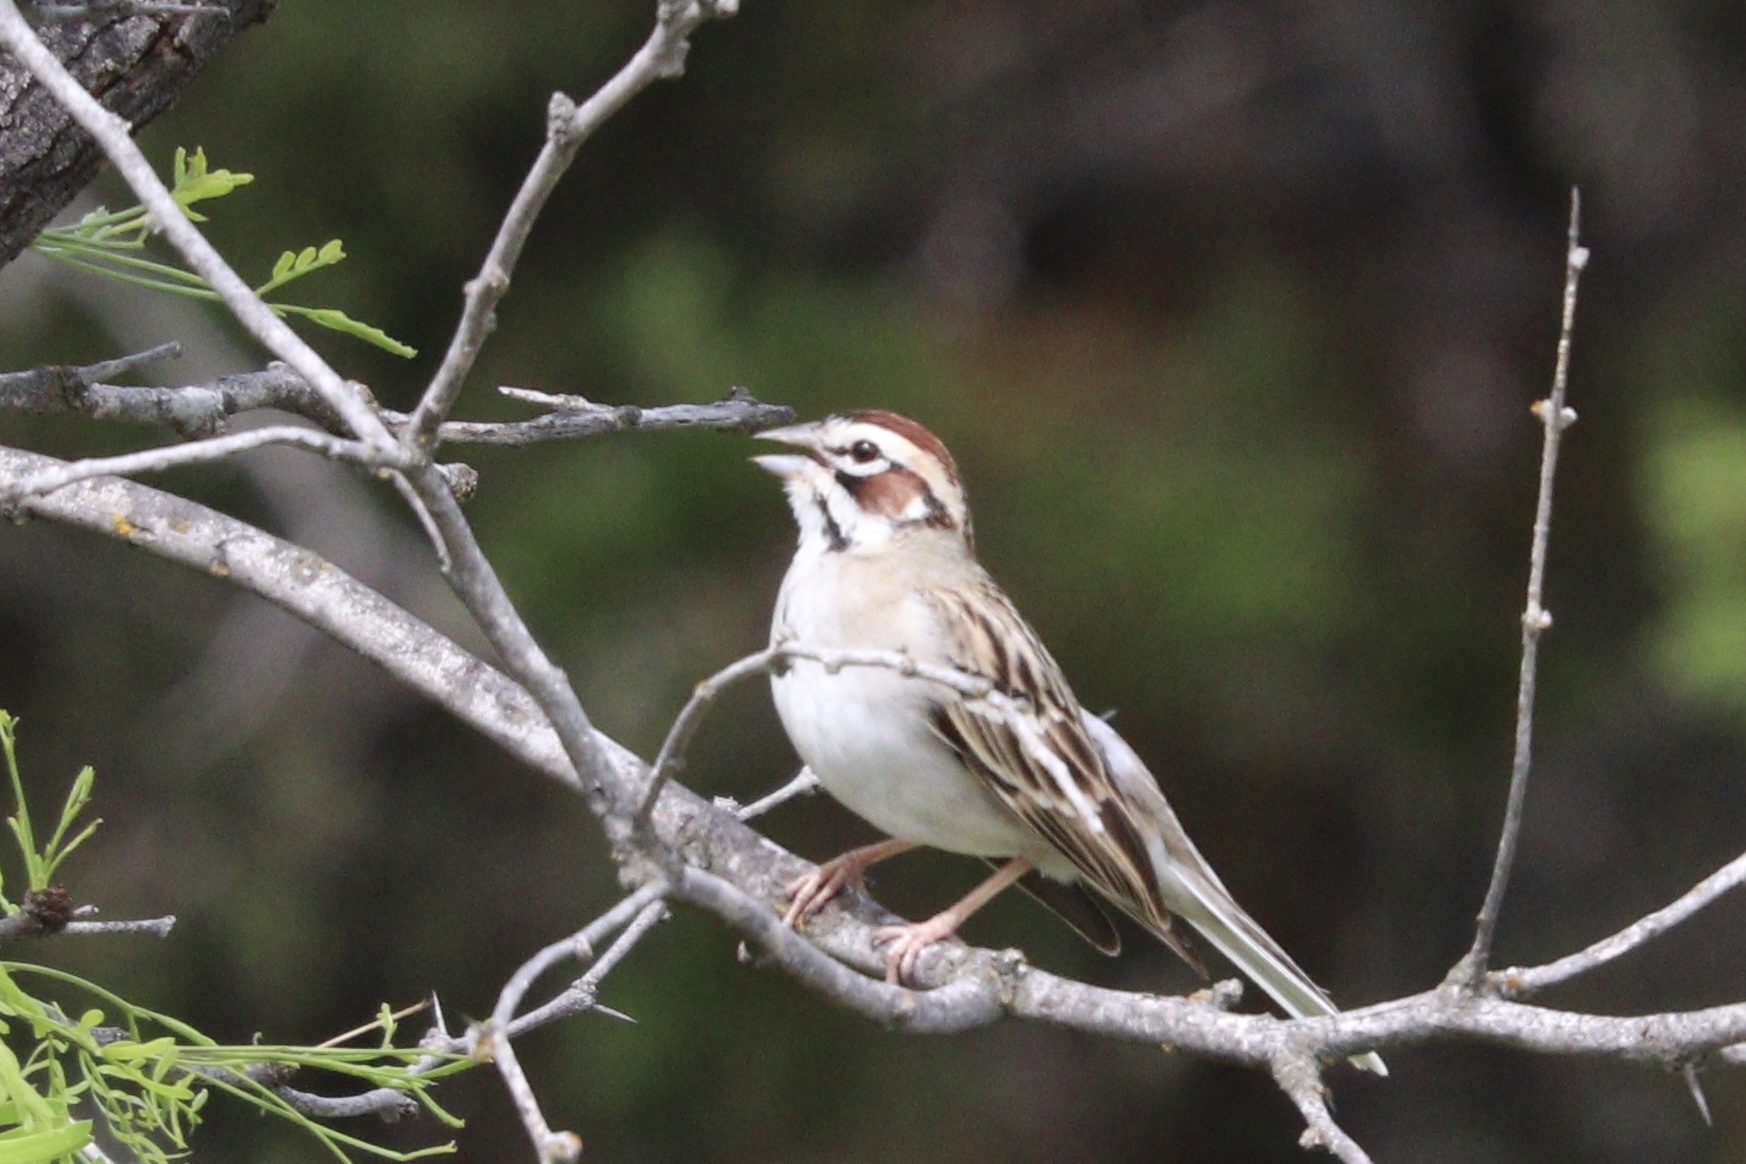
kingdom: Animalia
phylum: Chordata
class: Aves
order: Passeriformes
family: Passerellidae
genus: Chondestes
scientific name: Chondestes grammacus
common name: Lark sparrow
